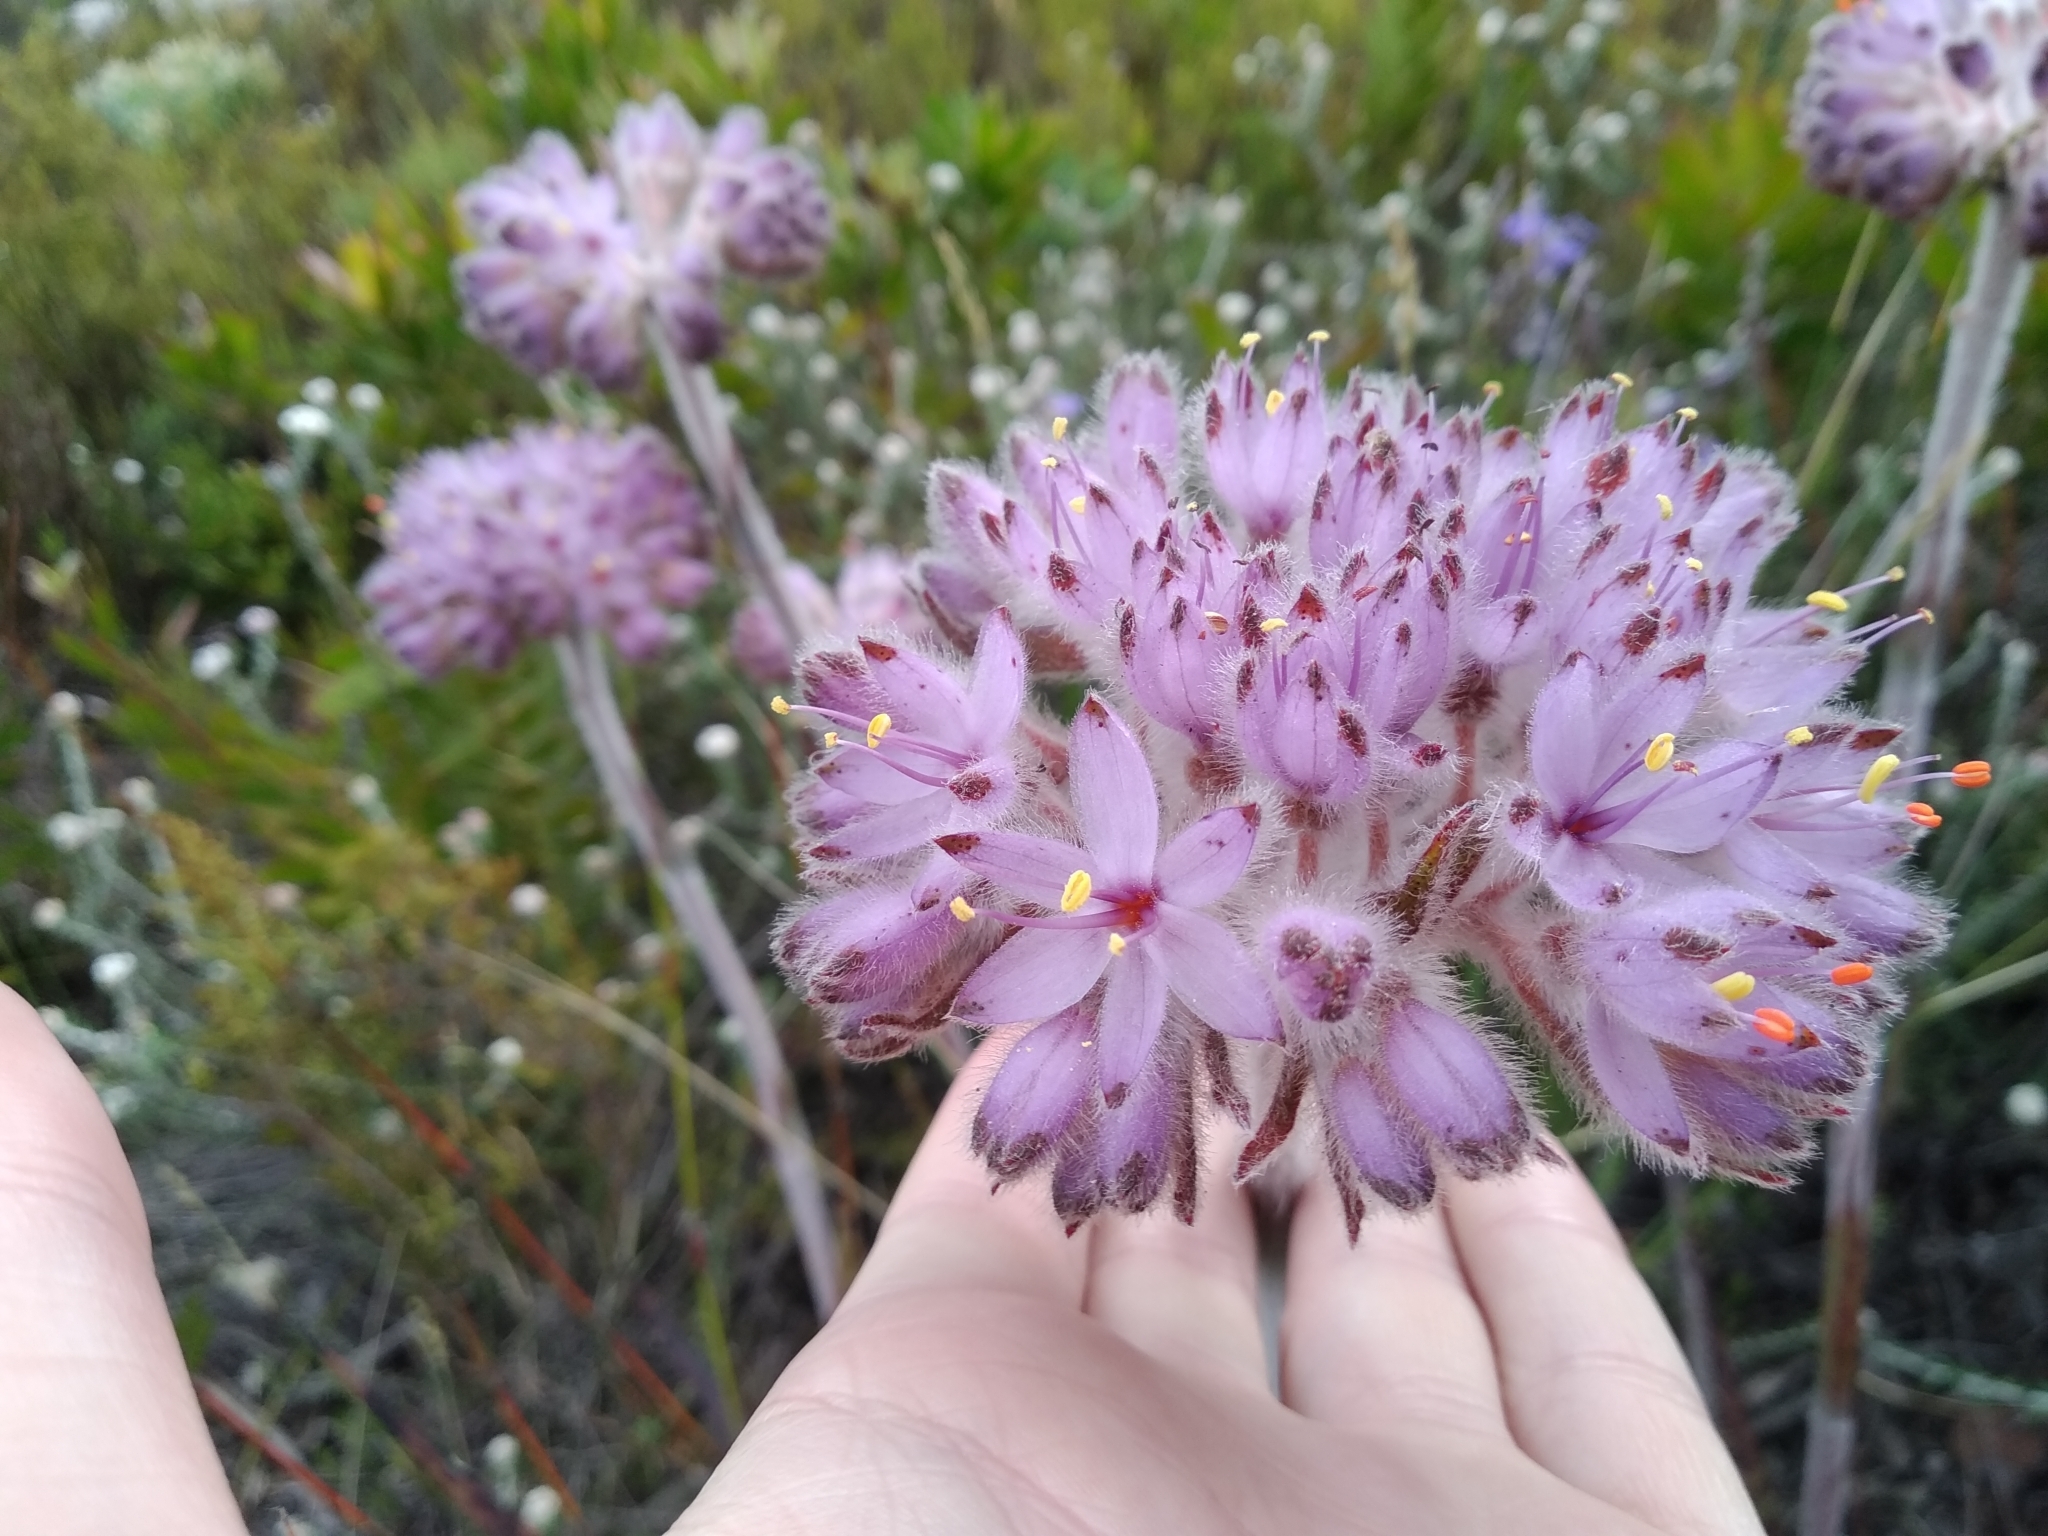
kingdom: Plantae
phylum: Tracheophyta
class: Liliopsida
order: Commelinales
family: Haemodoraceae
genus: Dilatris
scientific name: Dilatris corymbosa
